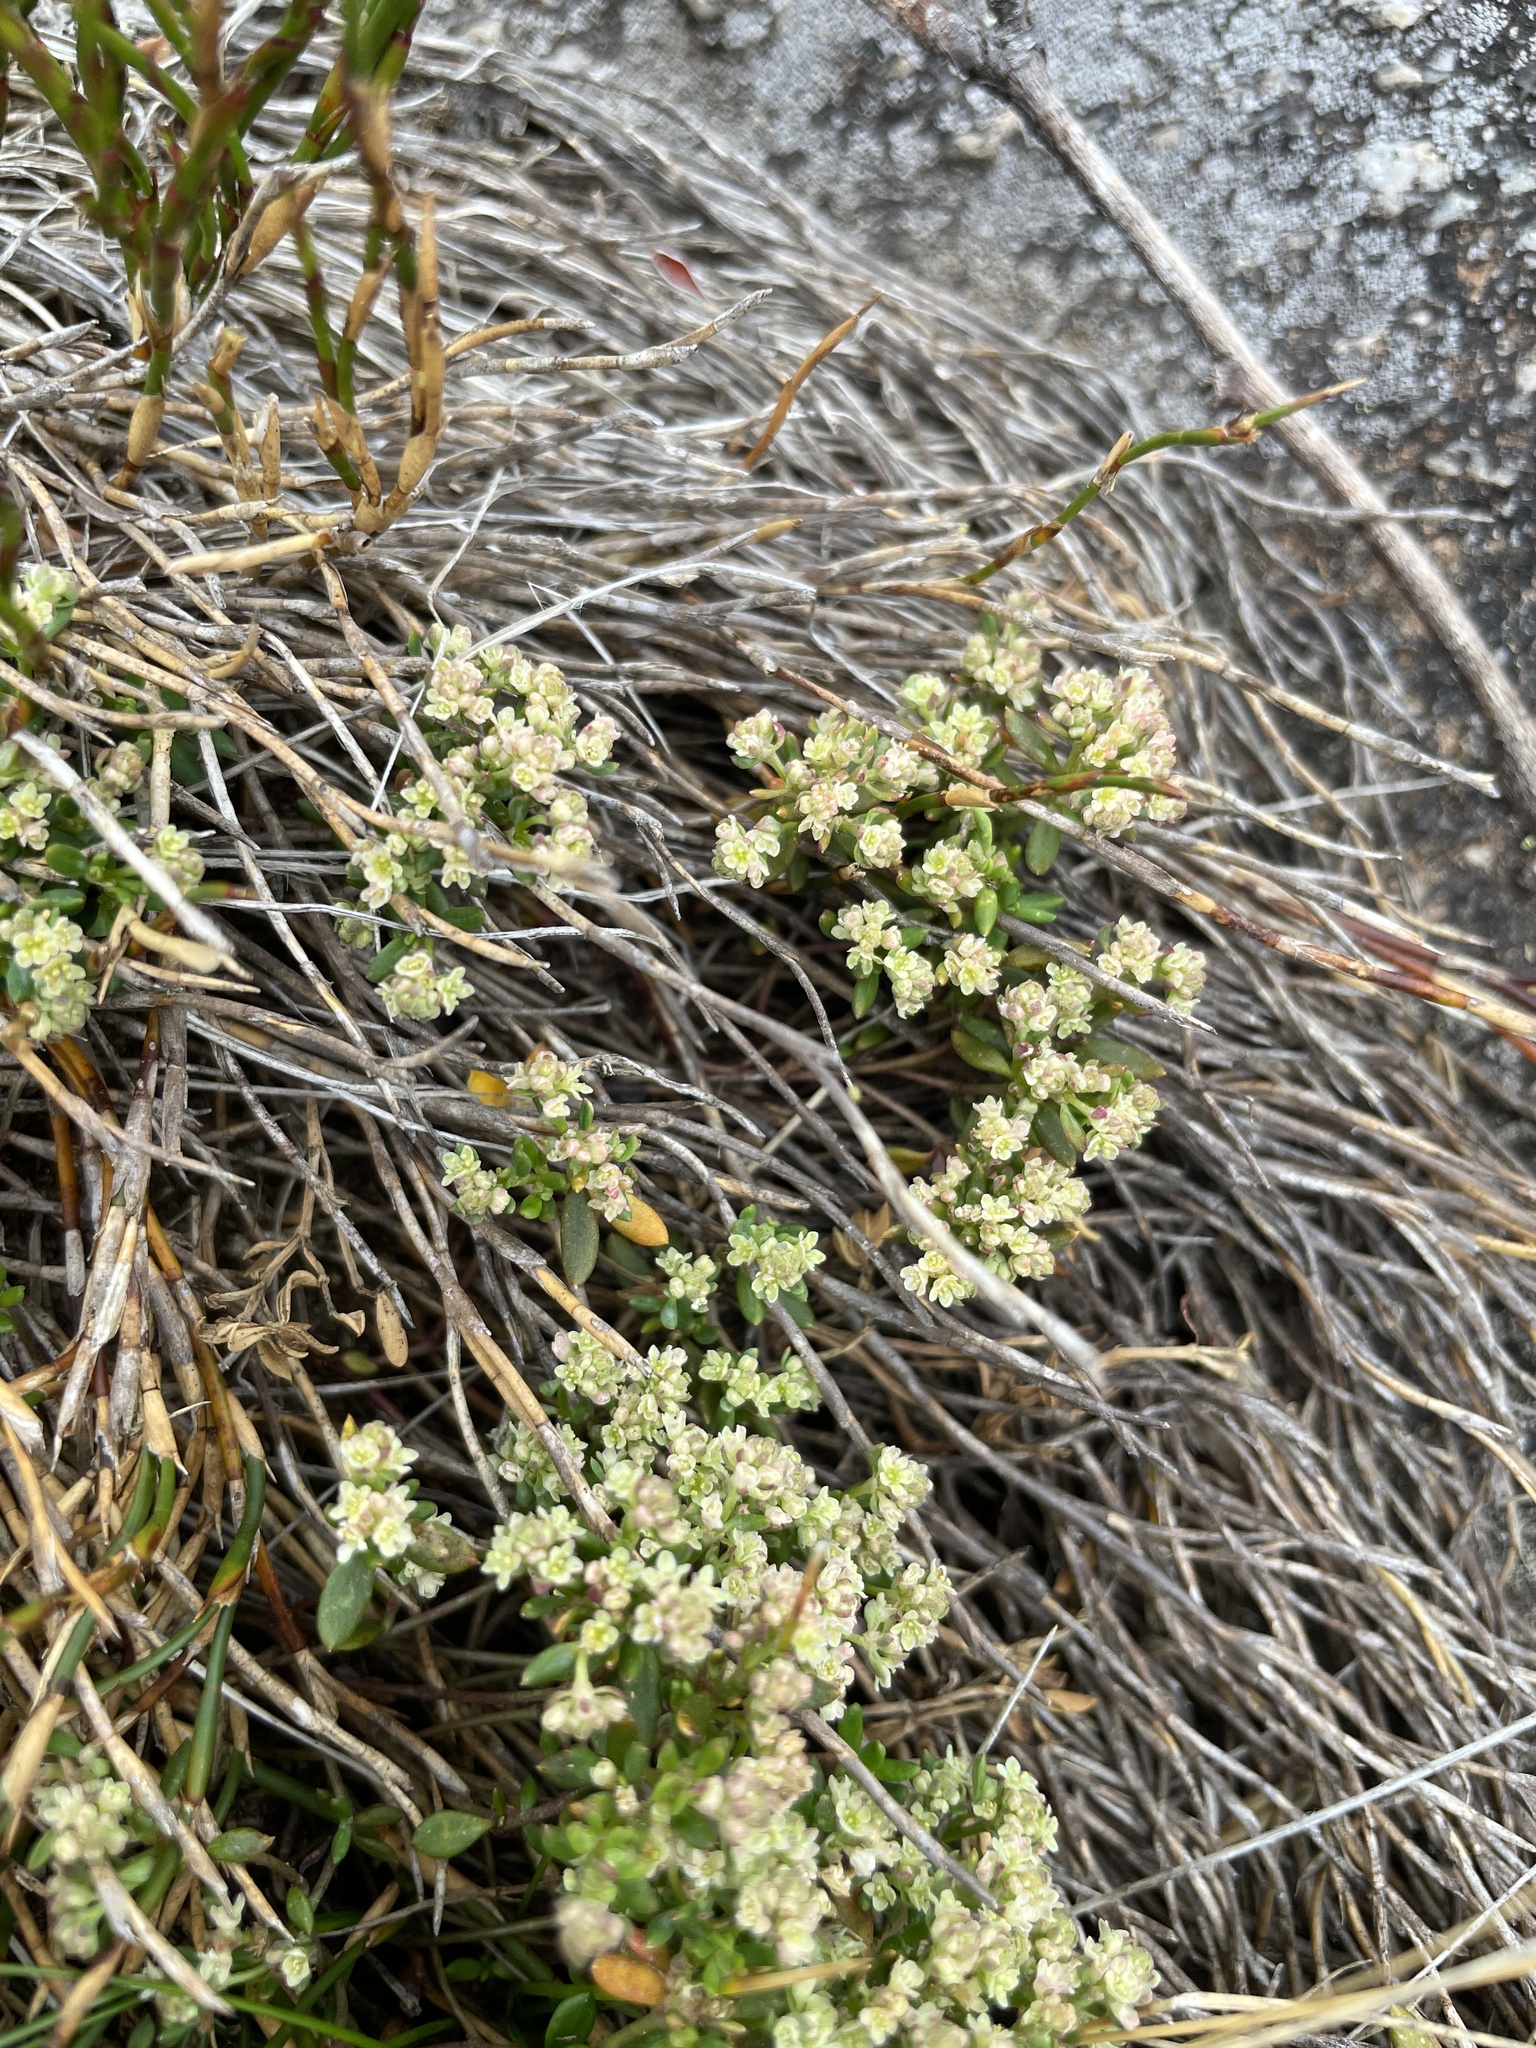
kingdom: Plantae
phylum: Tracheophyta
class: Magnoliopsida
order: Malpighiales
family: Phyllanthaceae
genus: Poranthera
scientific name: Poranthera oreophila
